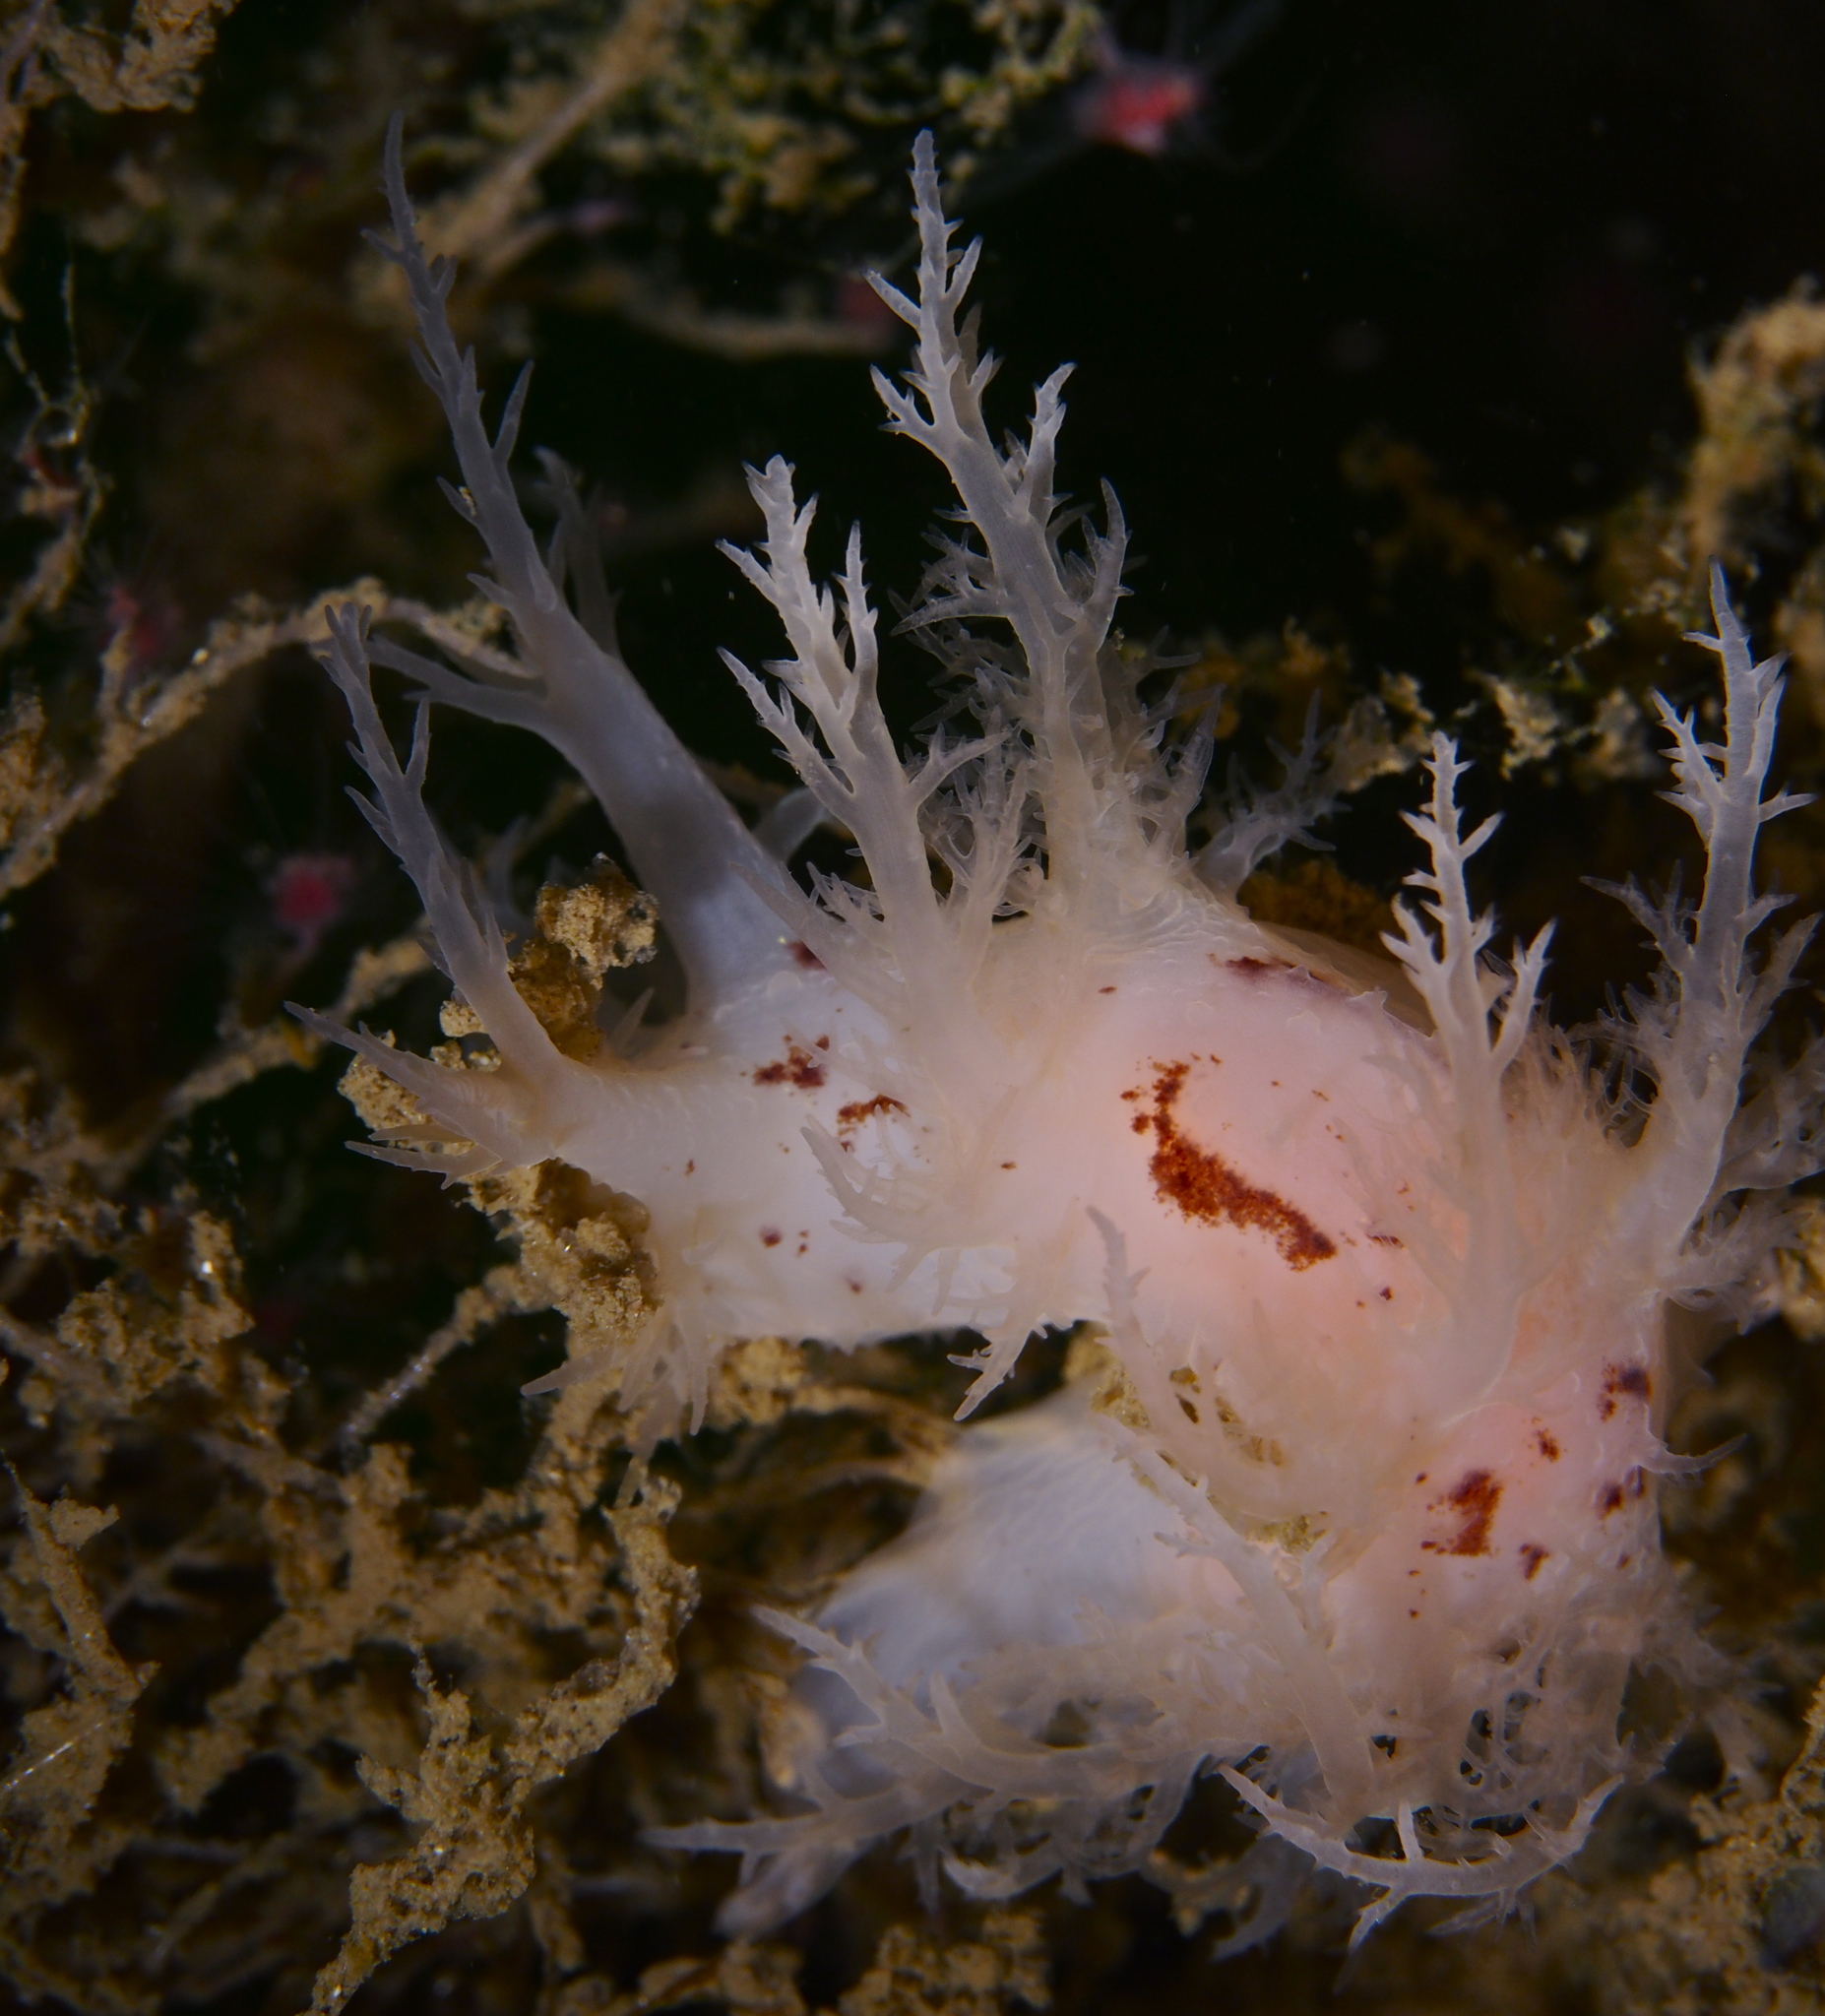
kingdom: Animalia
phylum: Mollusca
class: Gastropoda
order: Nudibranchia
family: Dendronotidae
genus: Dendronotus
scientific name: Dendronotus europaeus
